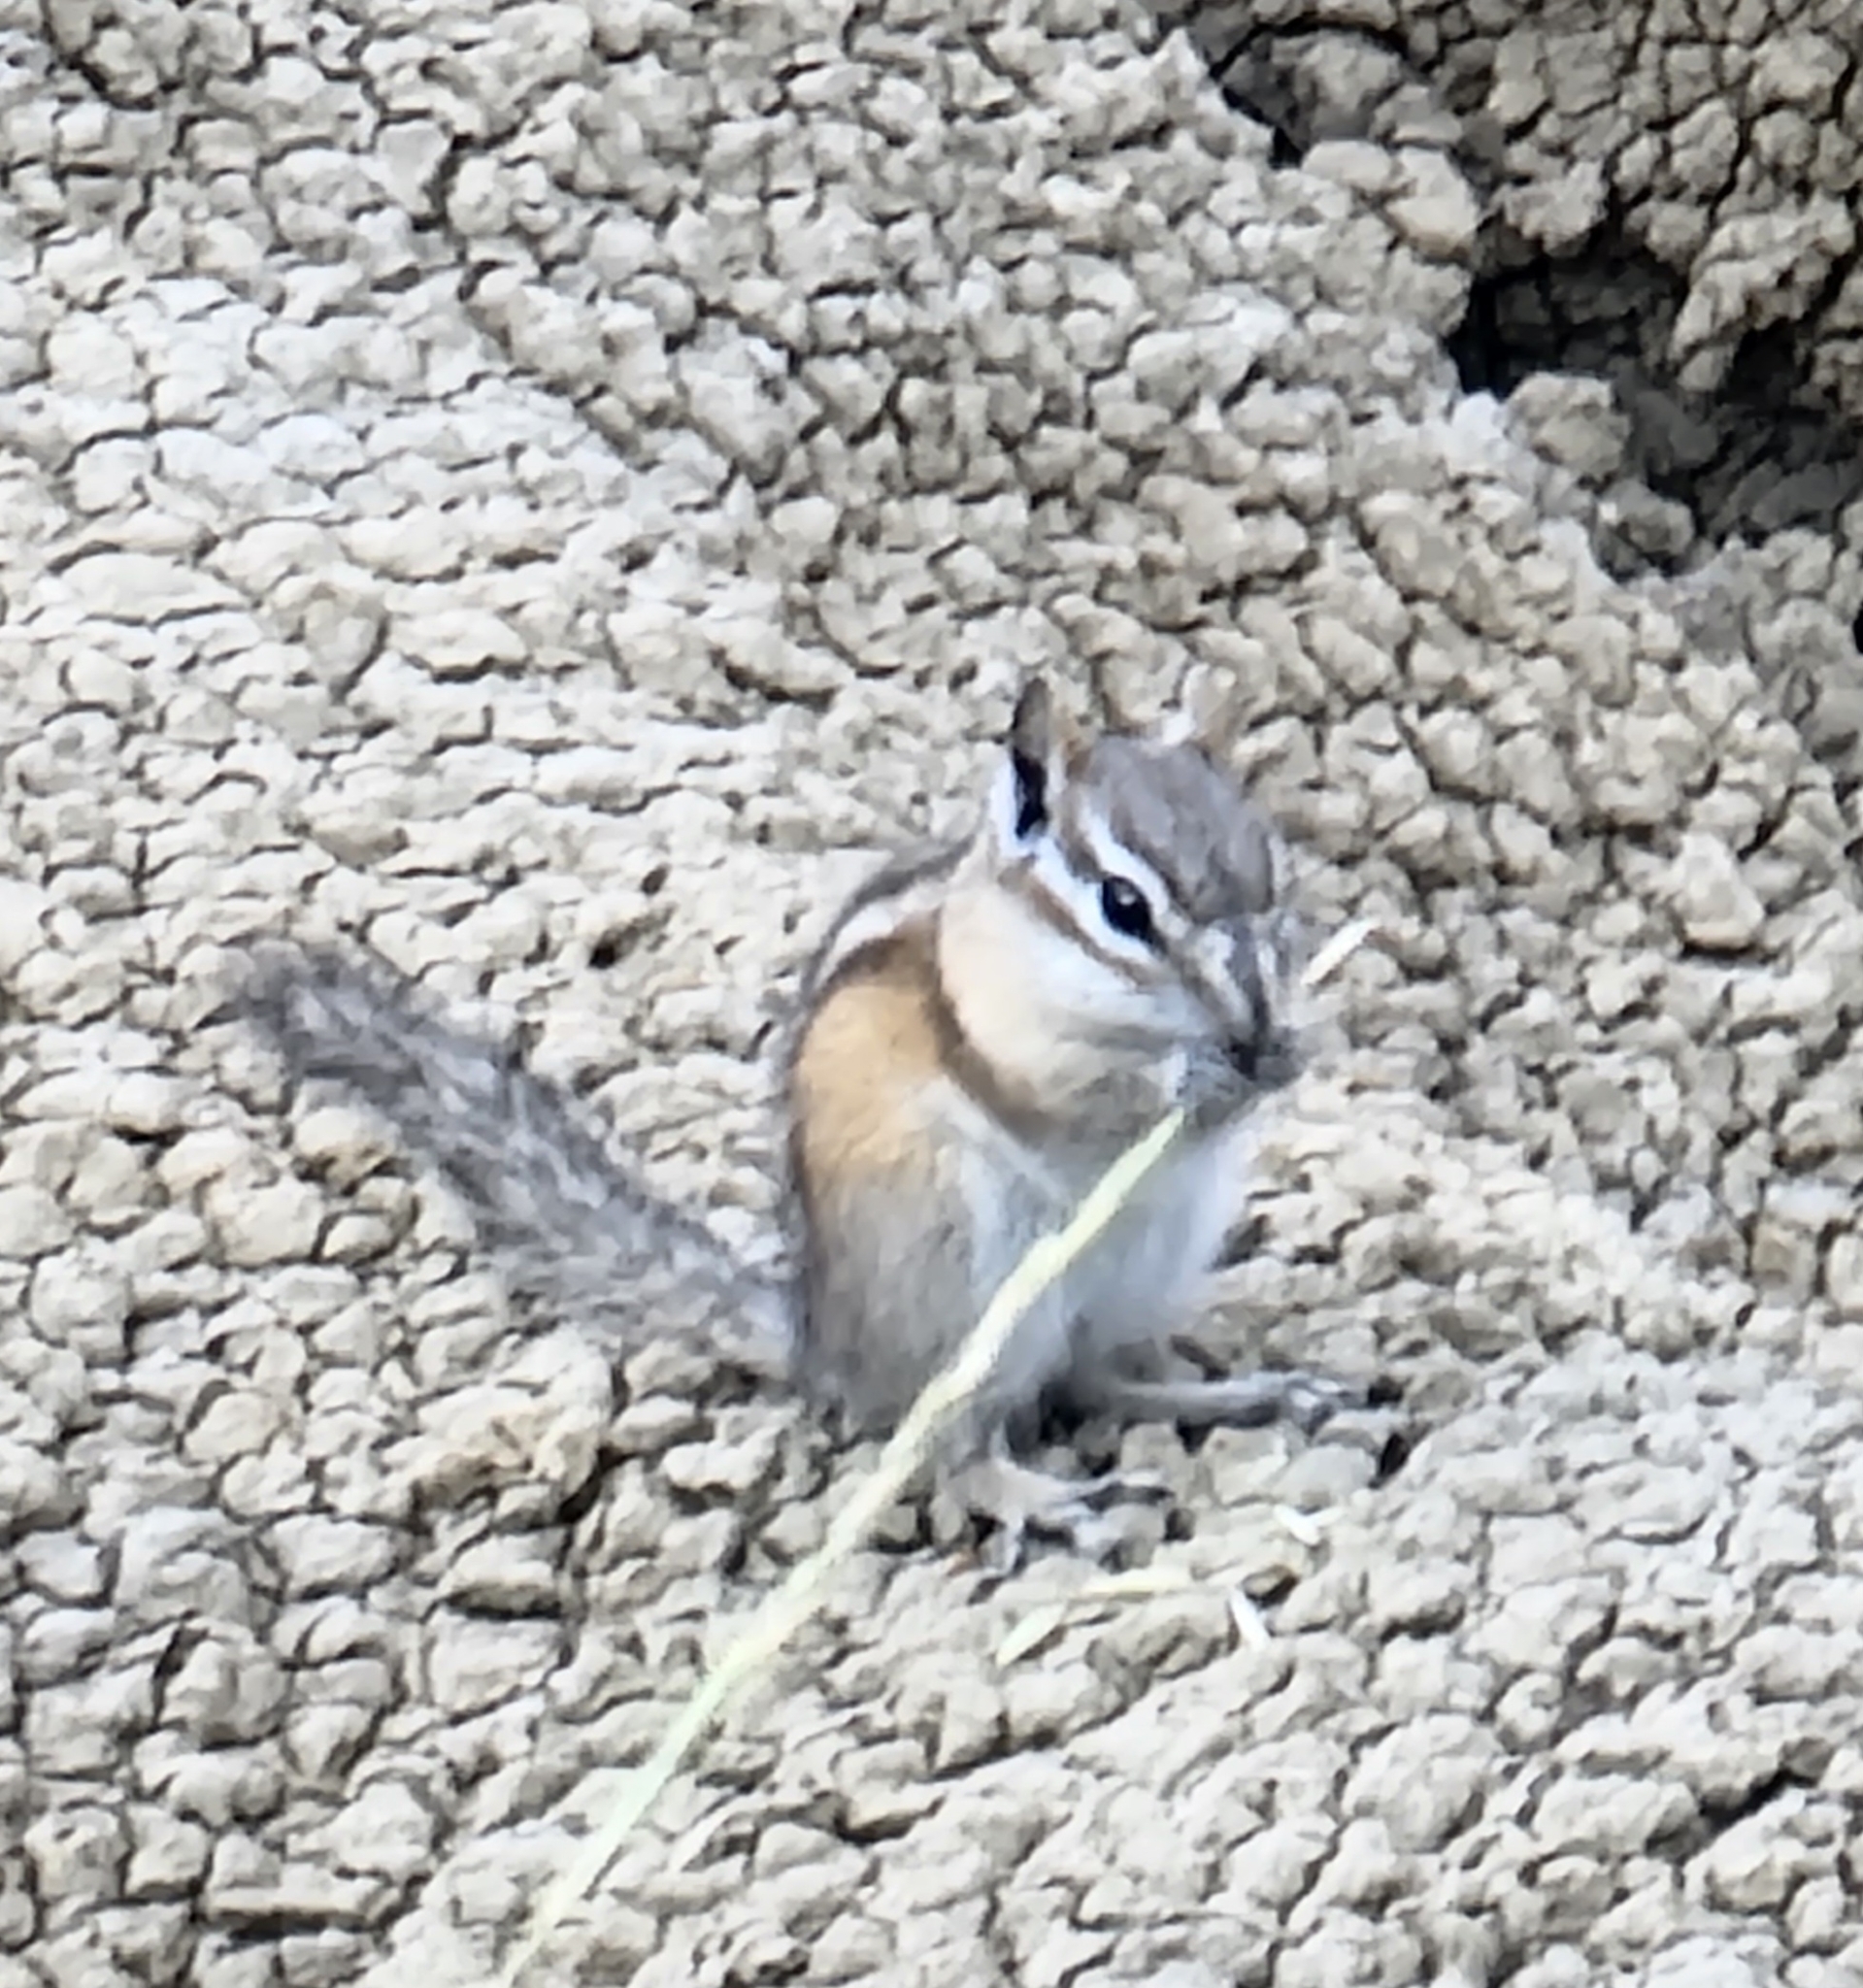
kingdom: Animalia
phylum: Chordata
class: Mammalia
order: Rodentia
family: Sciuridae
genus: Tamias
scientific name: Tamias minimus
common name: Least chipmunk
